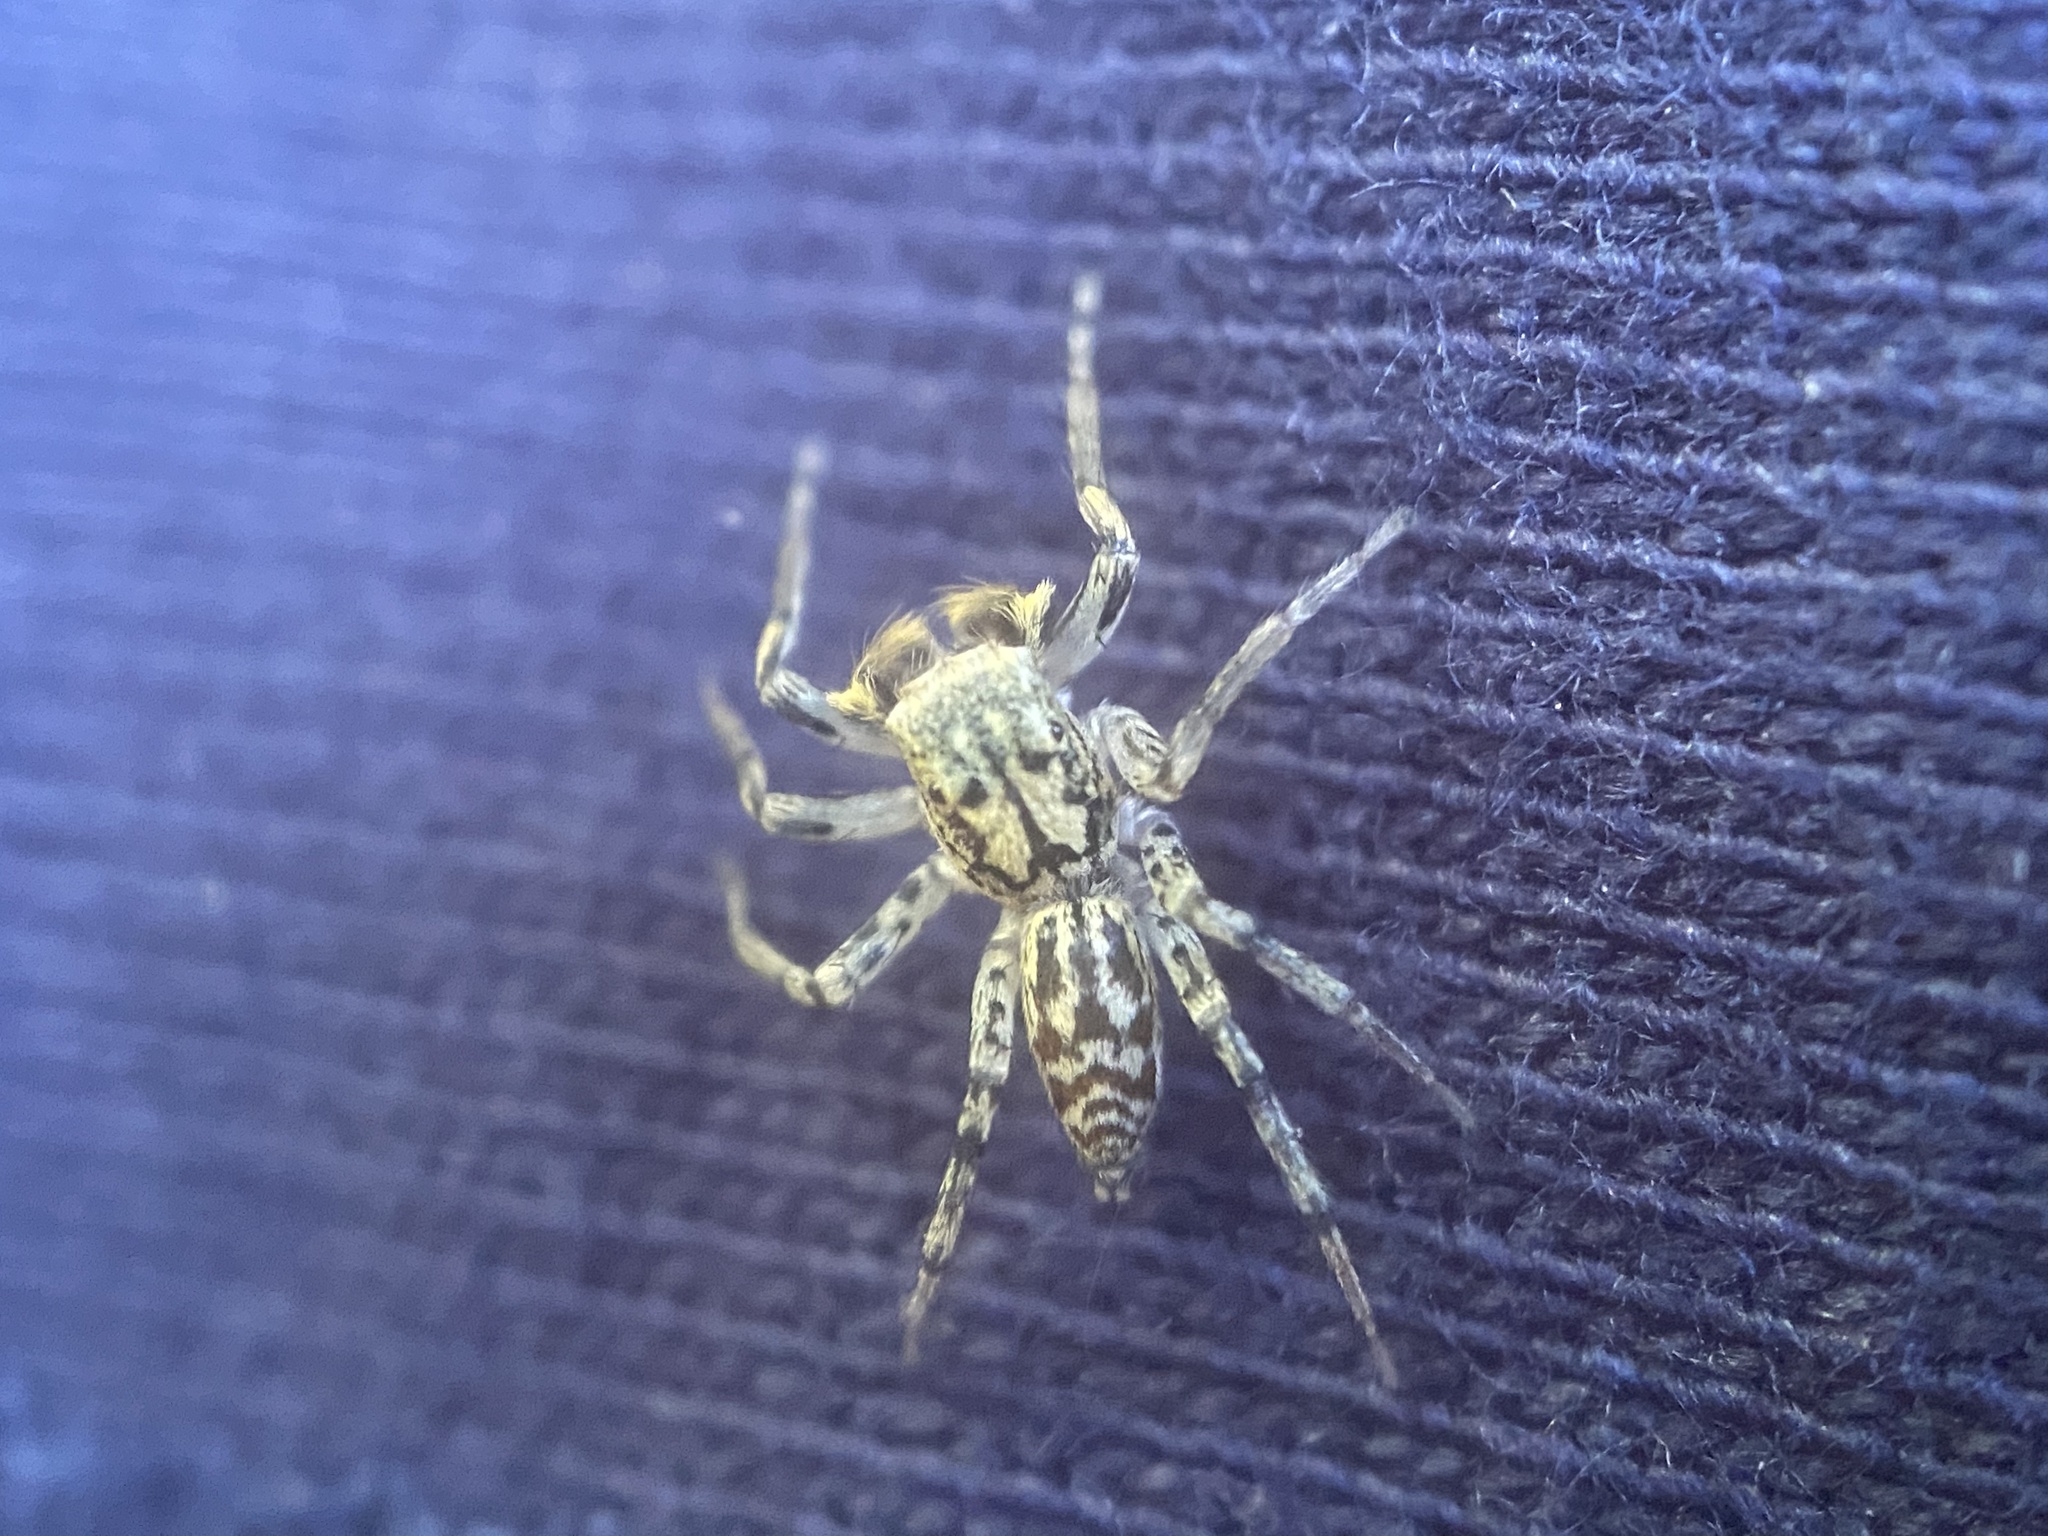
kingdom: Animalia
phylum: Arthropoda
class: Arachnida
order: Araneae
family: Salticidae
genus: Maevia
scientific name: Maevia inclemens
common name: Dimorphic jumper
